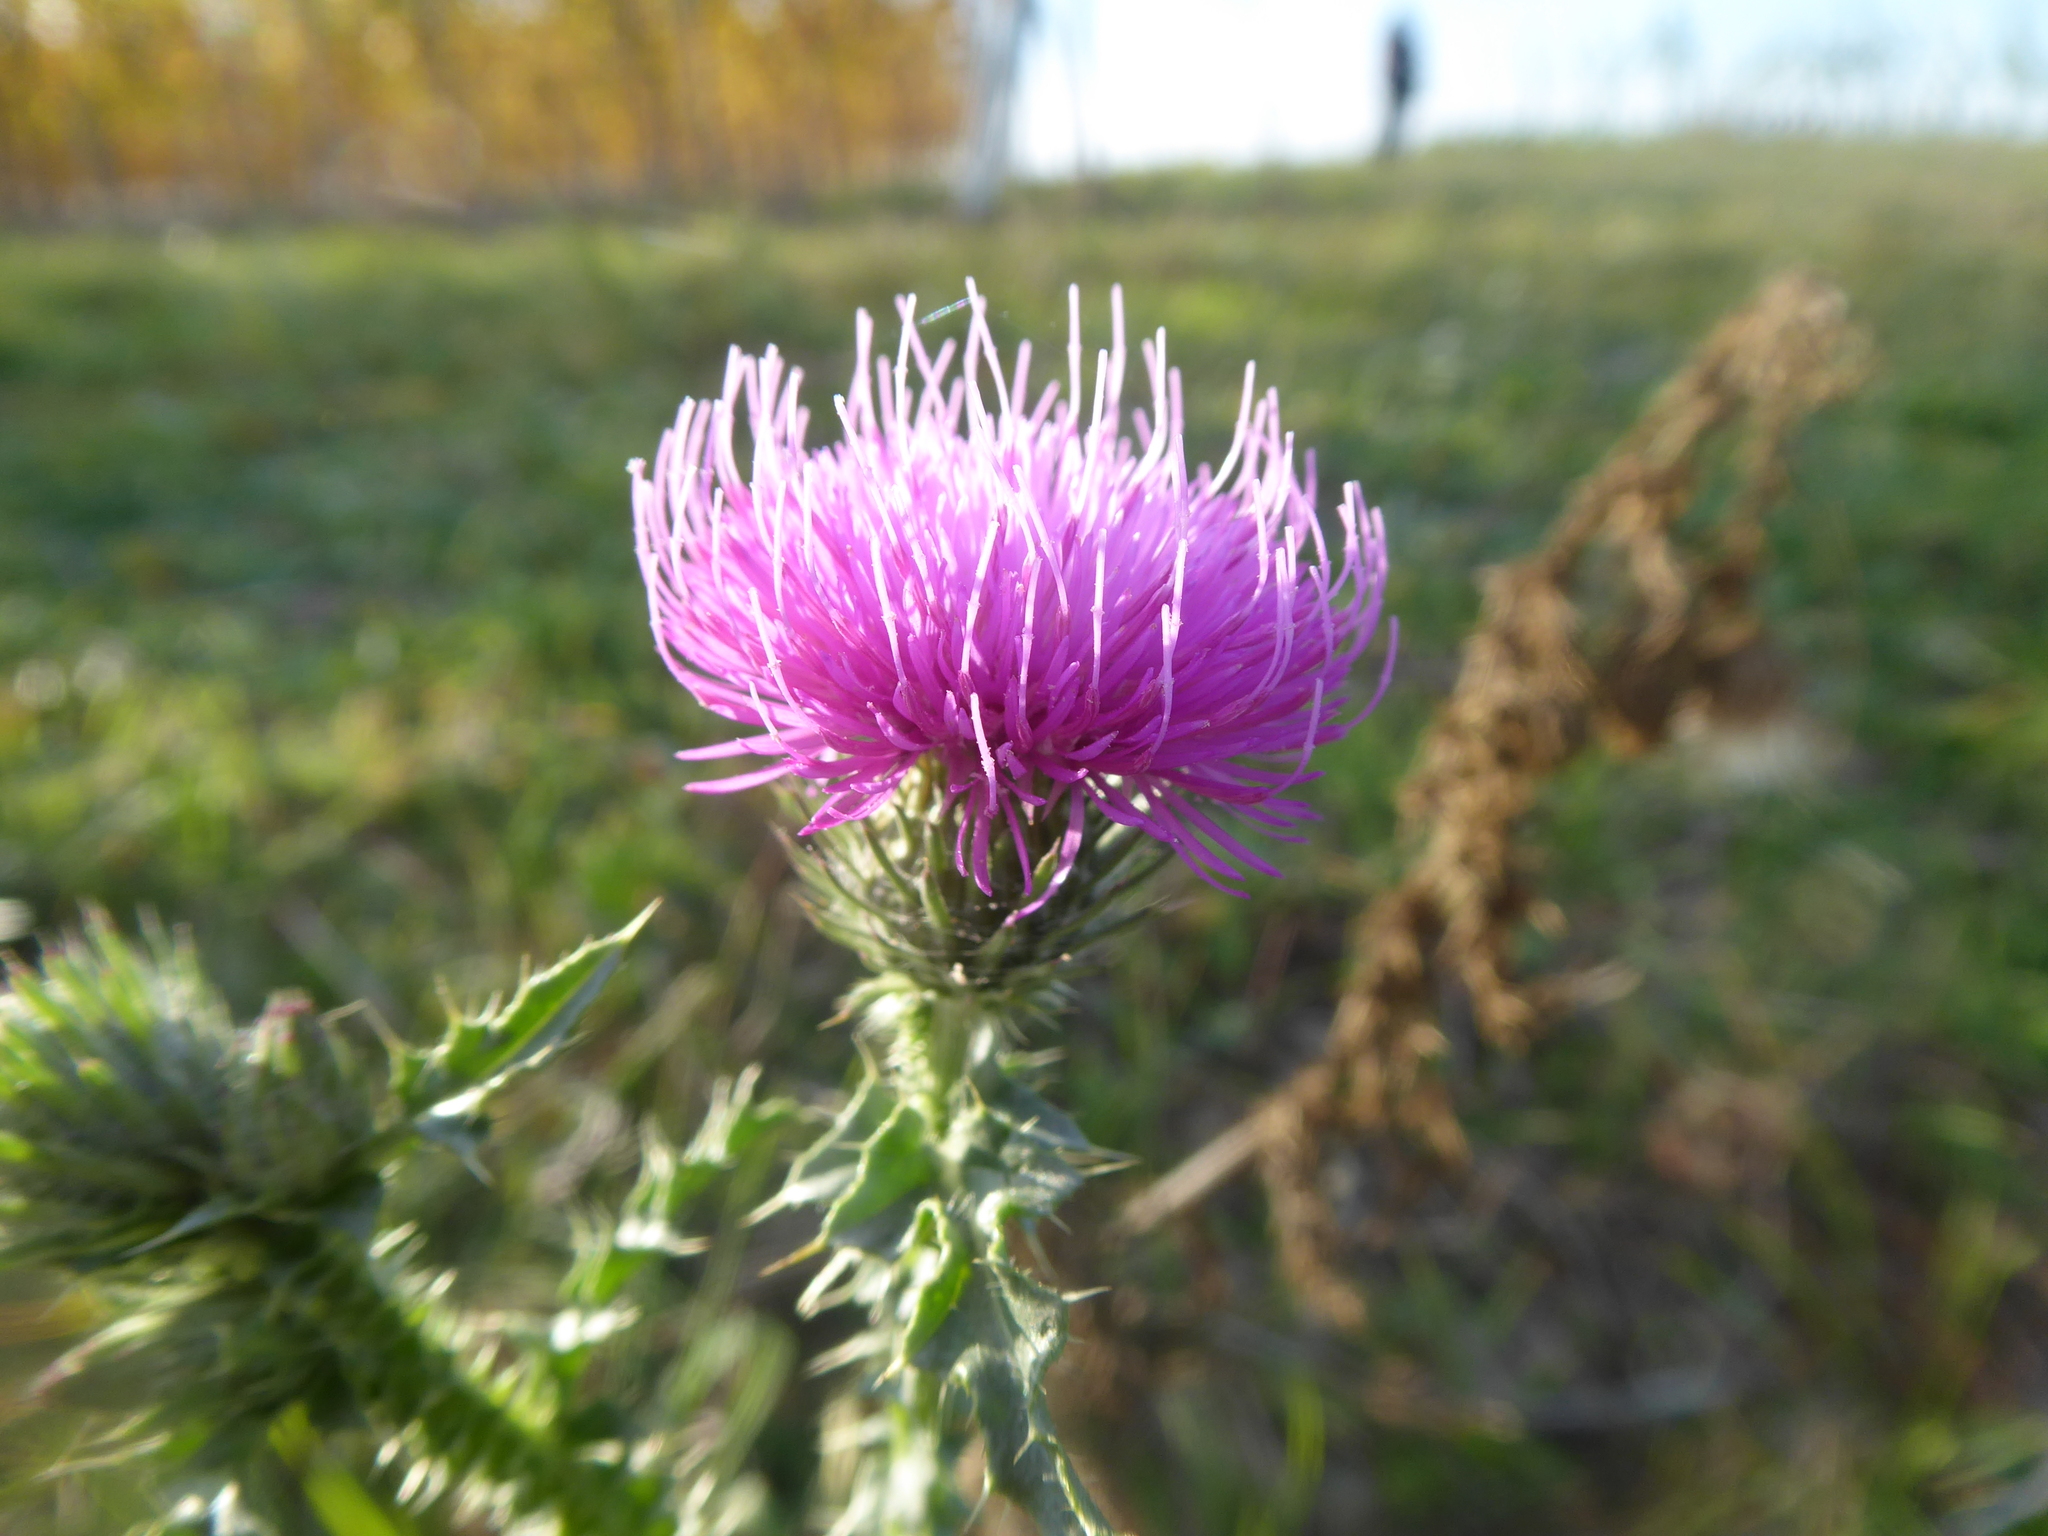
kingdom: Plantae
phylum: Tracheophyta
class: Magnoliopsida
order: Asterales
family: Asteraceae
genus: Carduus
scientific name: Carduus acanthoides
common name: Plumeless thistle
